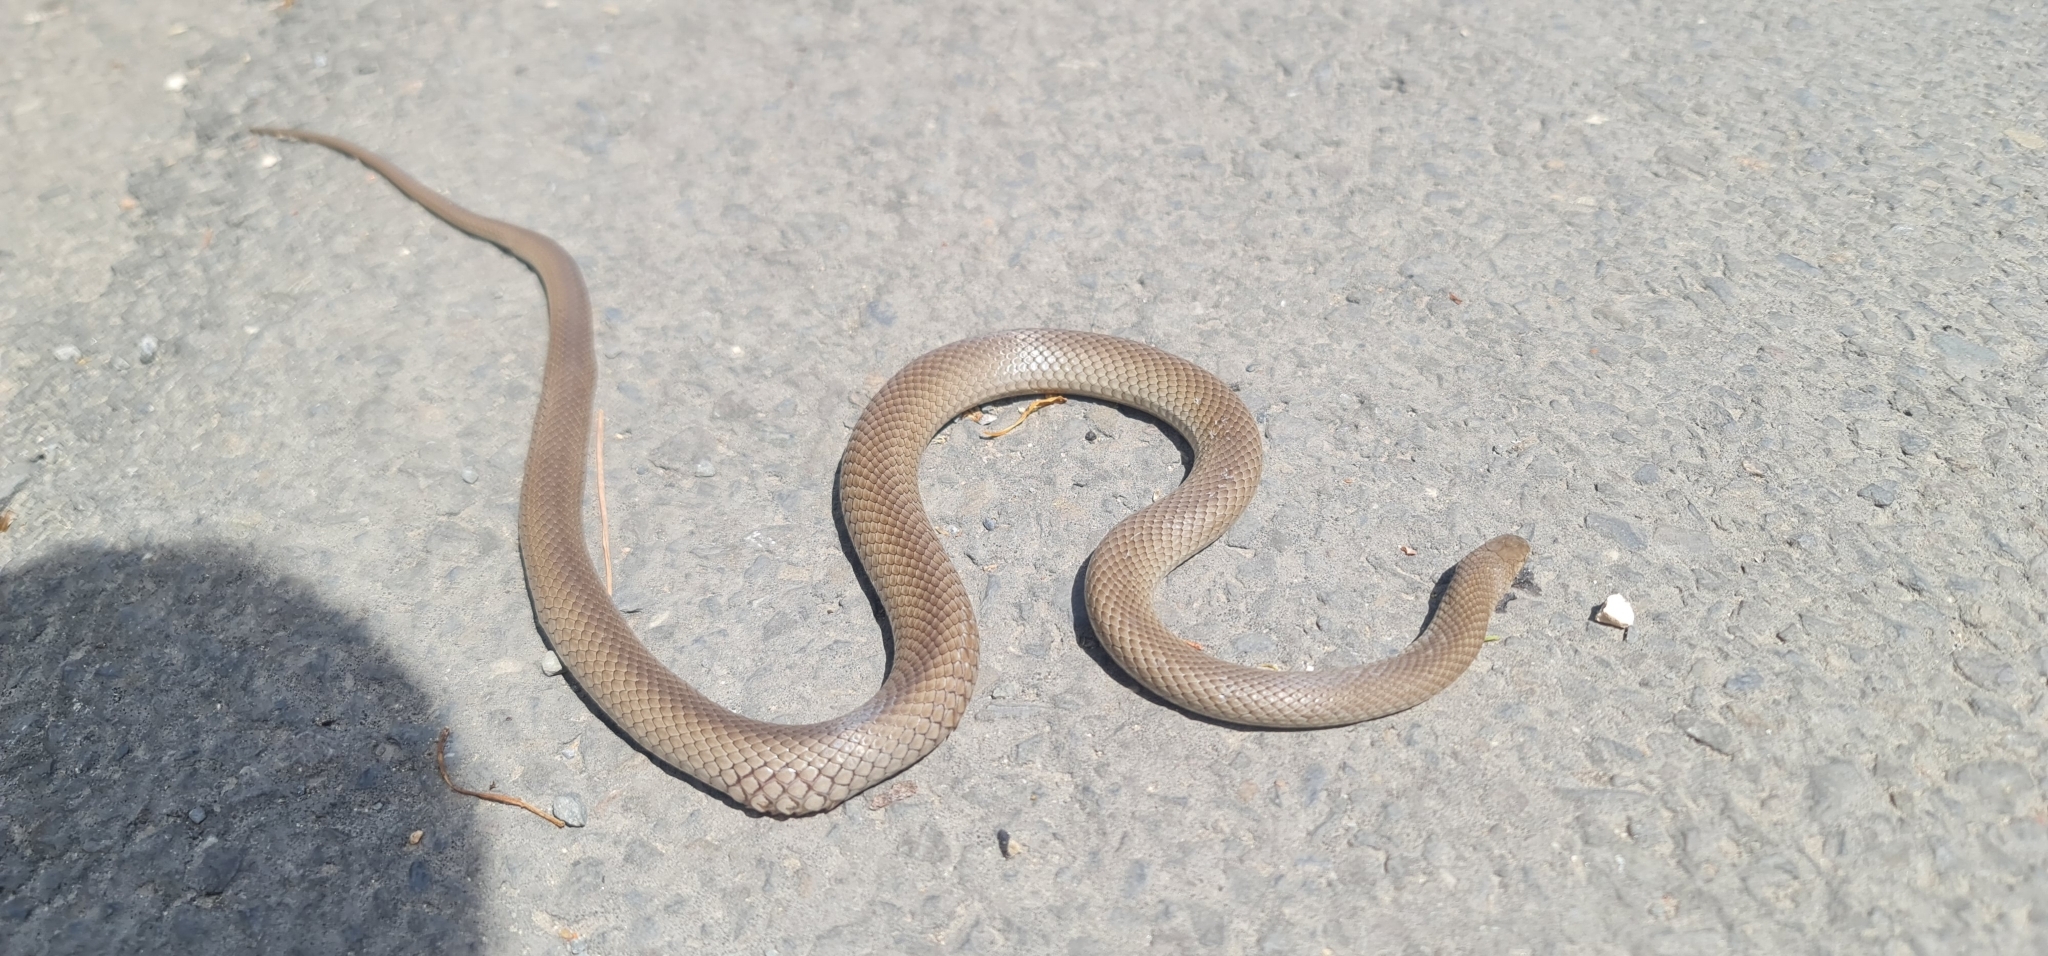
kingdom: Animalia
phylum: Chordata
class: Squamata
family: Elapidae
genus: Pseudonaja
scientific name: Pseudonaja textilis
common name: Eastern brown snake
